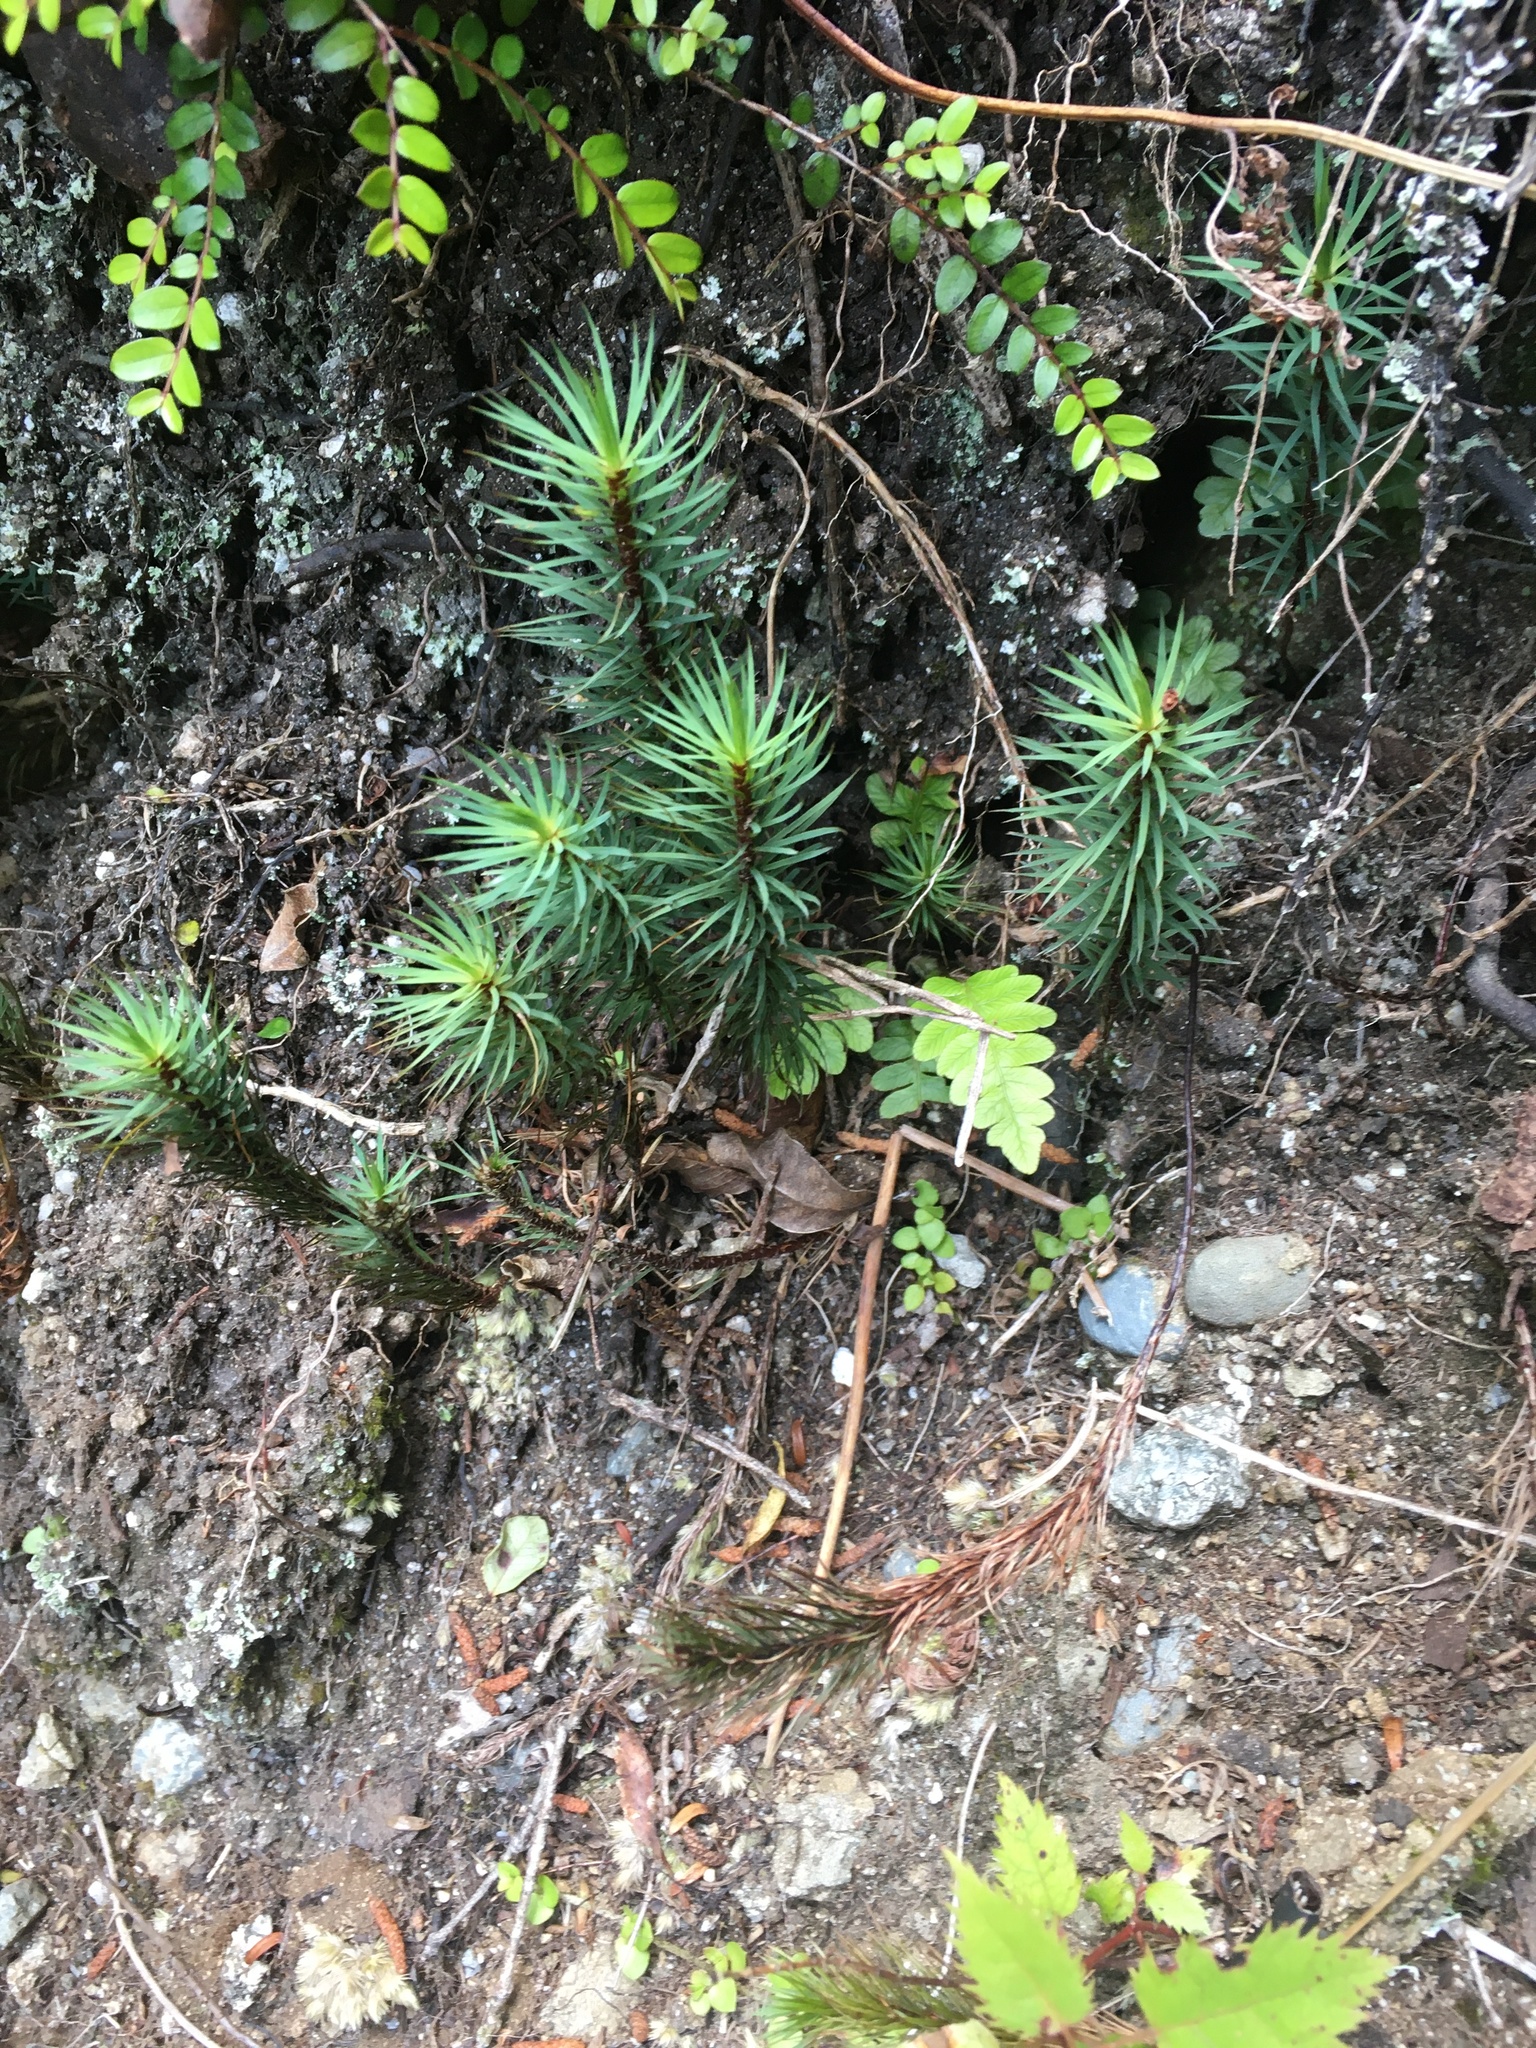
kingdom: Plantae
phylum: Bryophyta
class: Polytrichopsida
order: Polytrichales
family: Polytrichaceae
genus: Dawsonia
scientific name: Dawsonia superba
